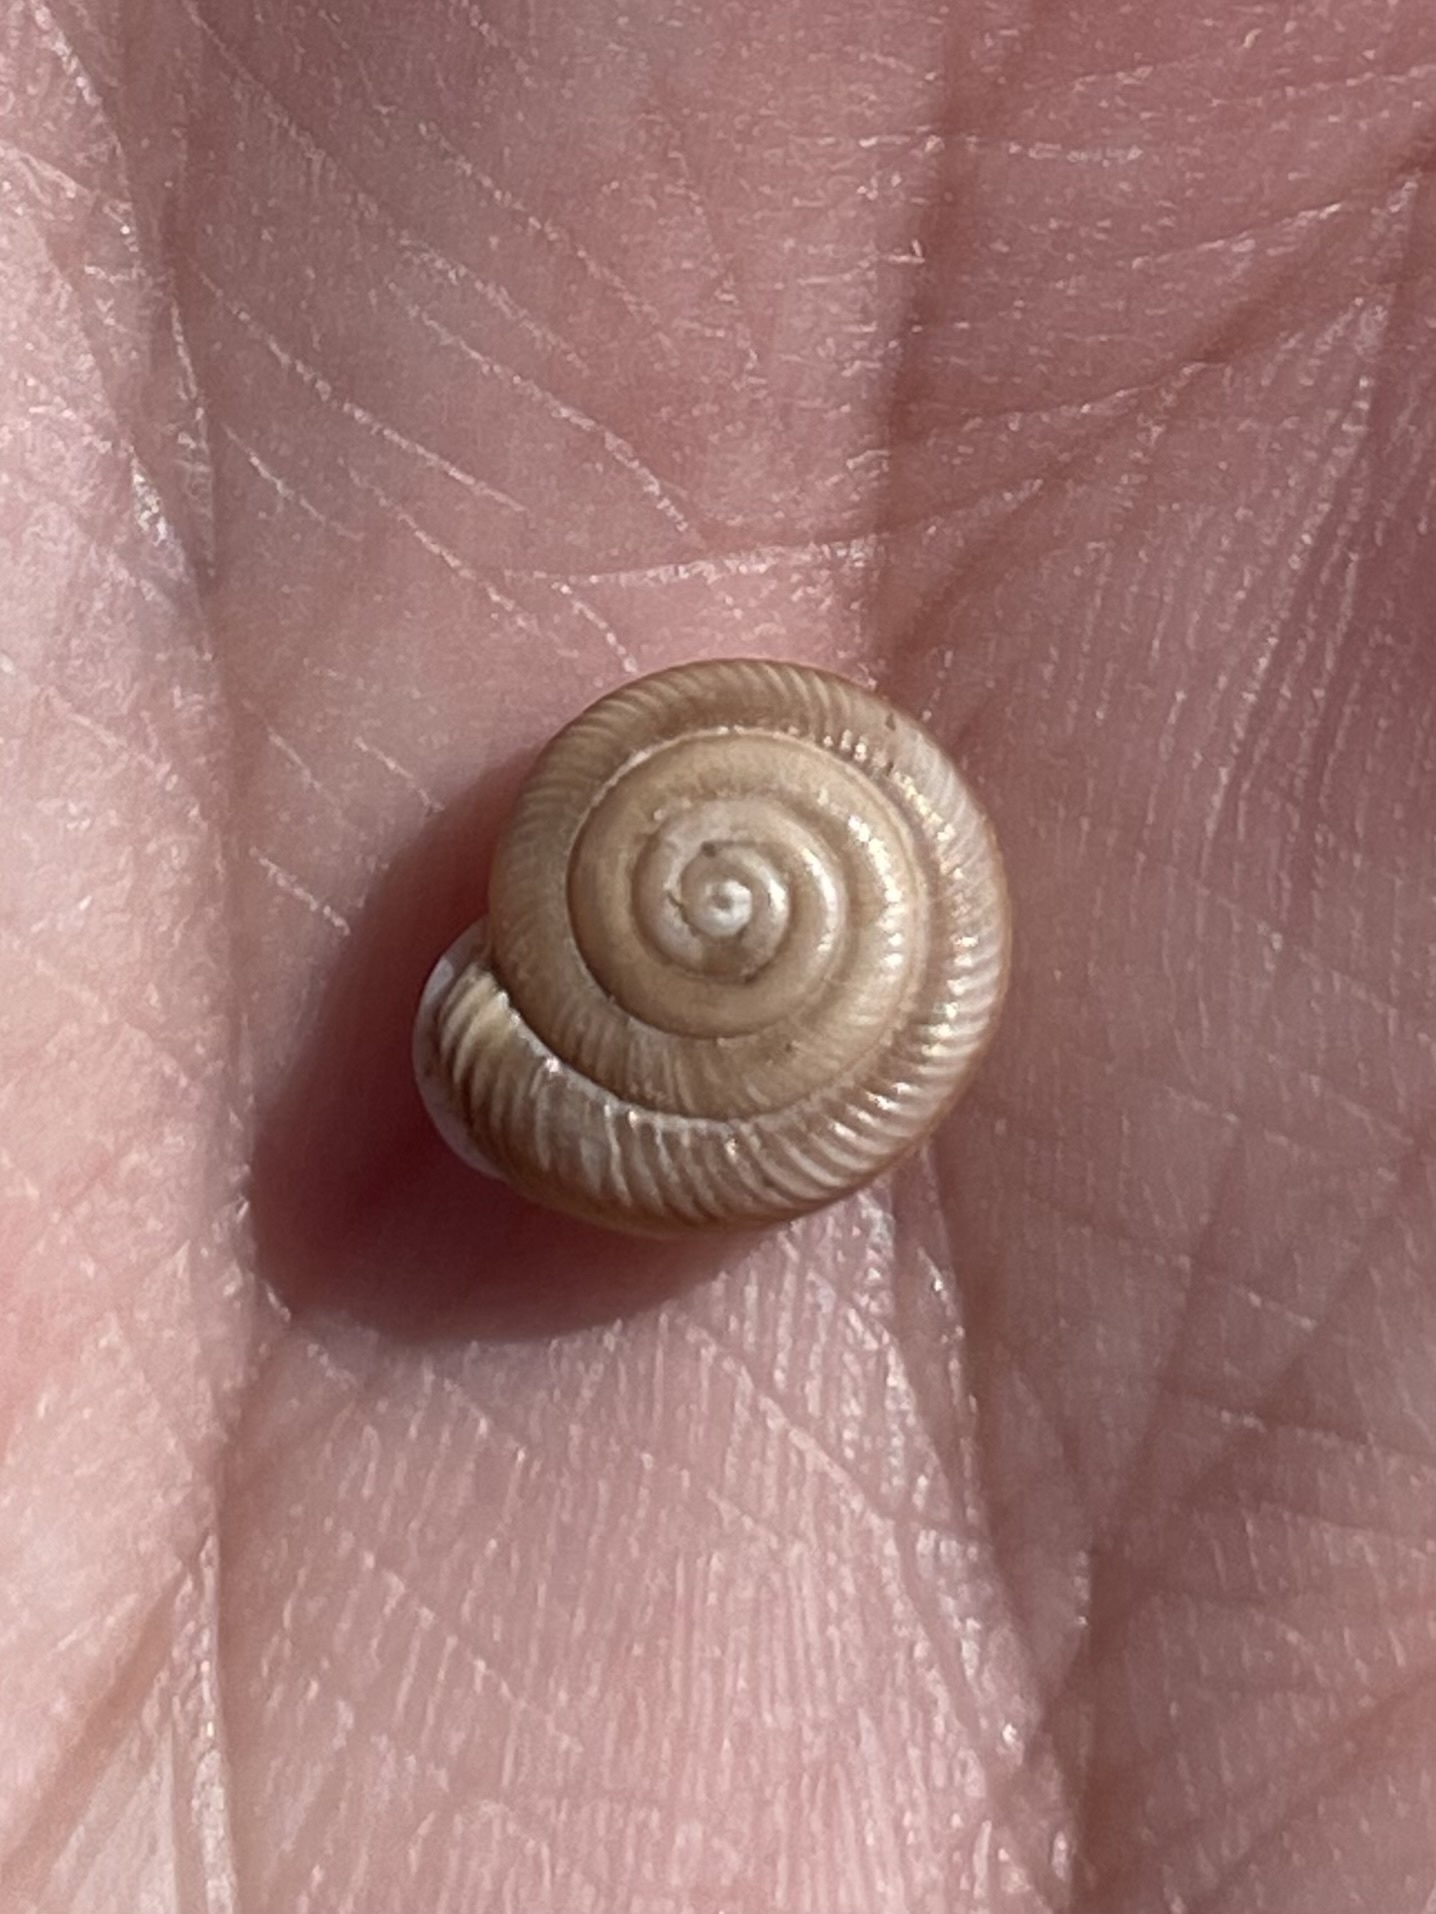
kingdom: Animalia
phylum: Mollusca
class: Gastropoda
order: Stylommatophora
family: Polygyridae
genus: Linisa
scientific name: Linisa texasiana
